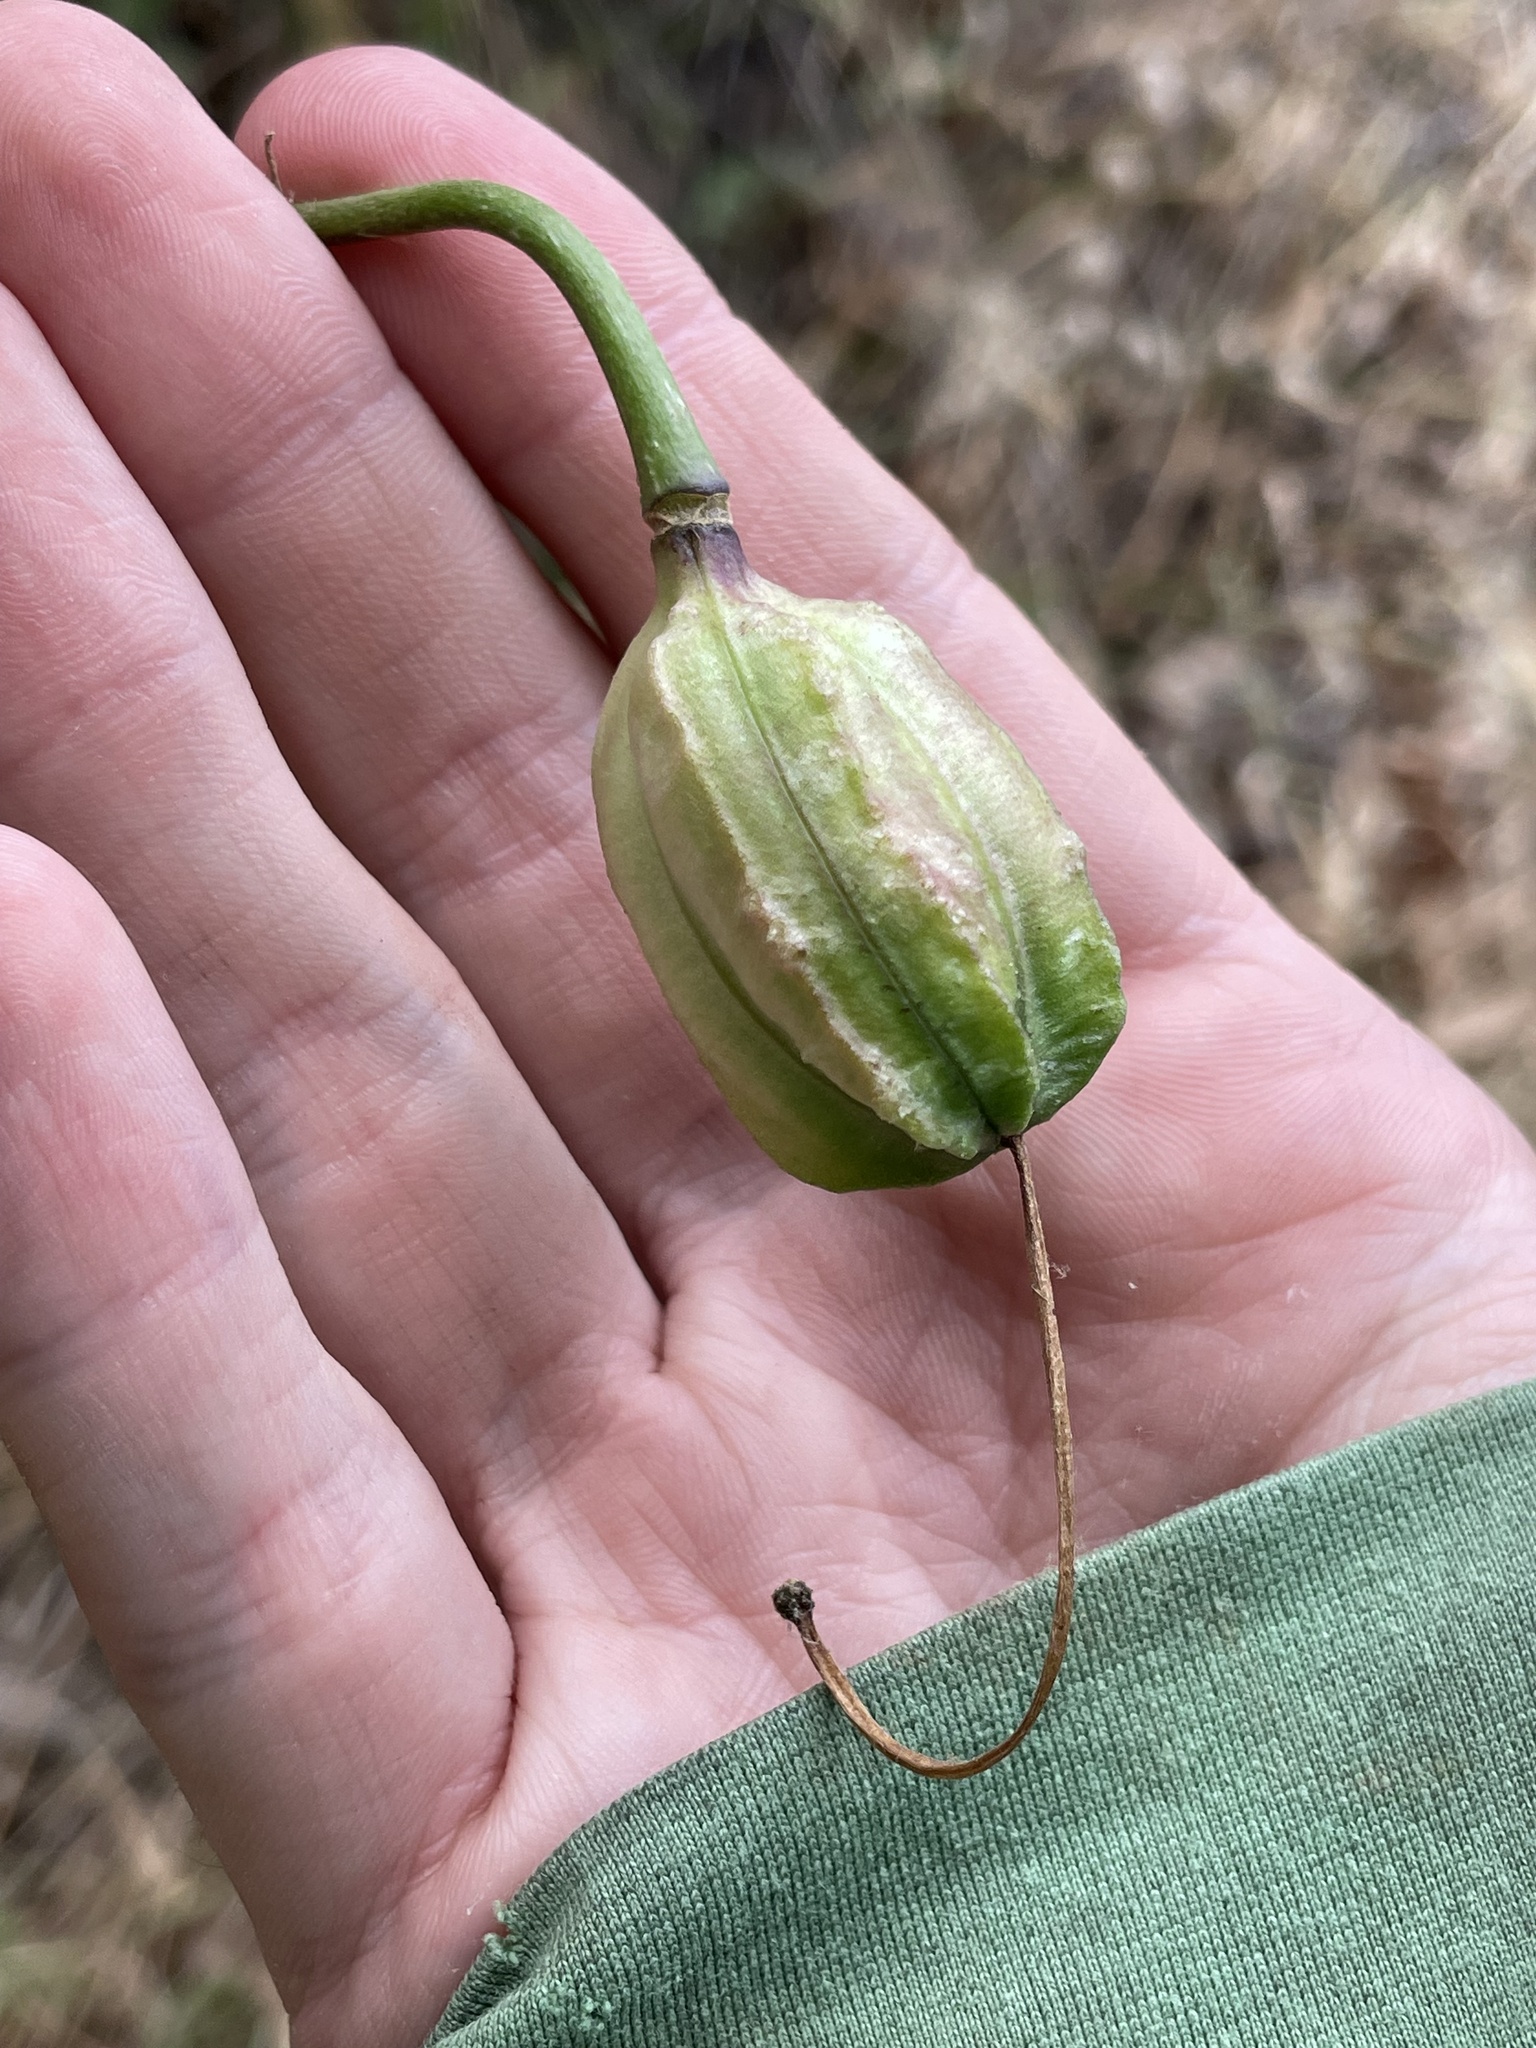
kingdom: Plantae
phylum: Tracheophyta
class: Liliopsida
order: Liliales
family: Liliaceae
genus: Lilium
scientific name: Lilium humboldtii
